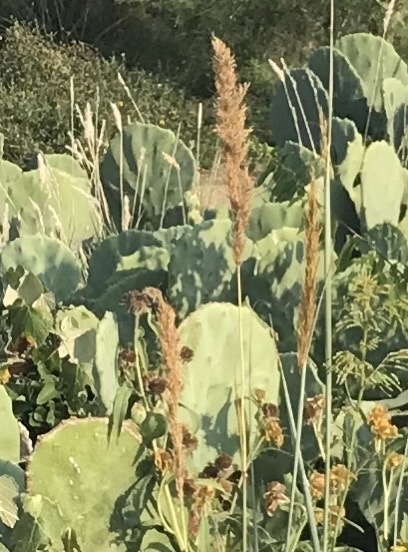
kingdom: Plantae
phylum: Tracheophyta
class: Liliopsida
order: Poales
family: Poaceae
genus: Sorghastrum
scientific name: Sorghastrum nutans
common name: Indian grass
